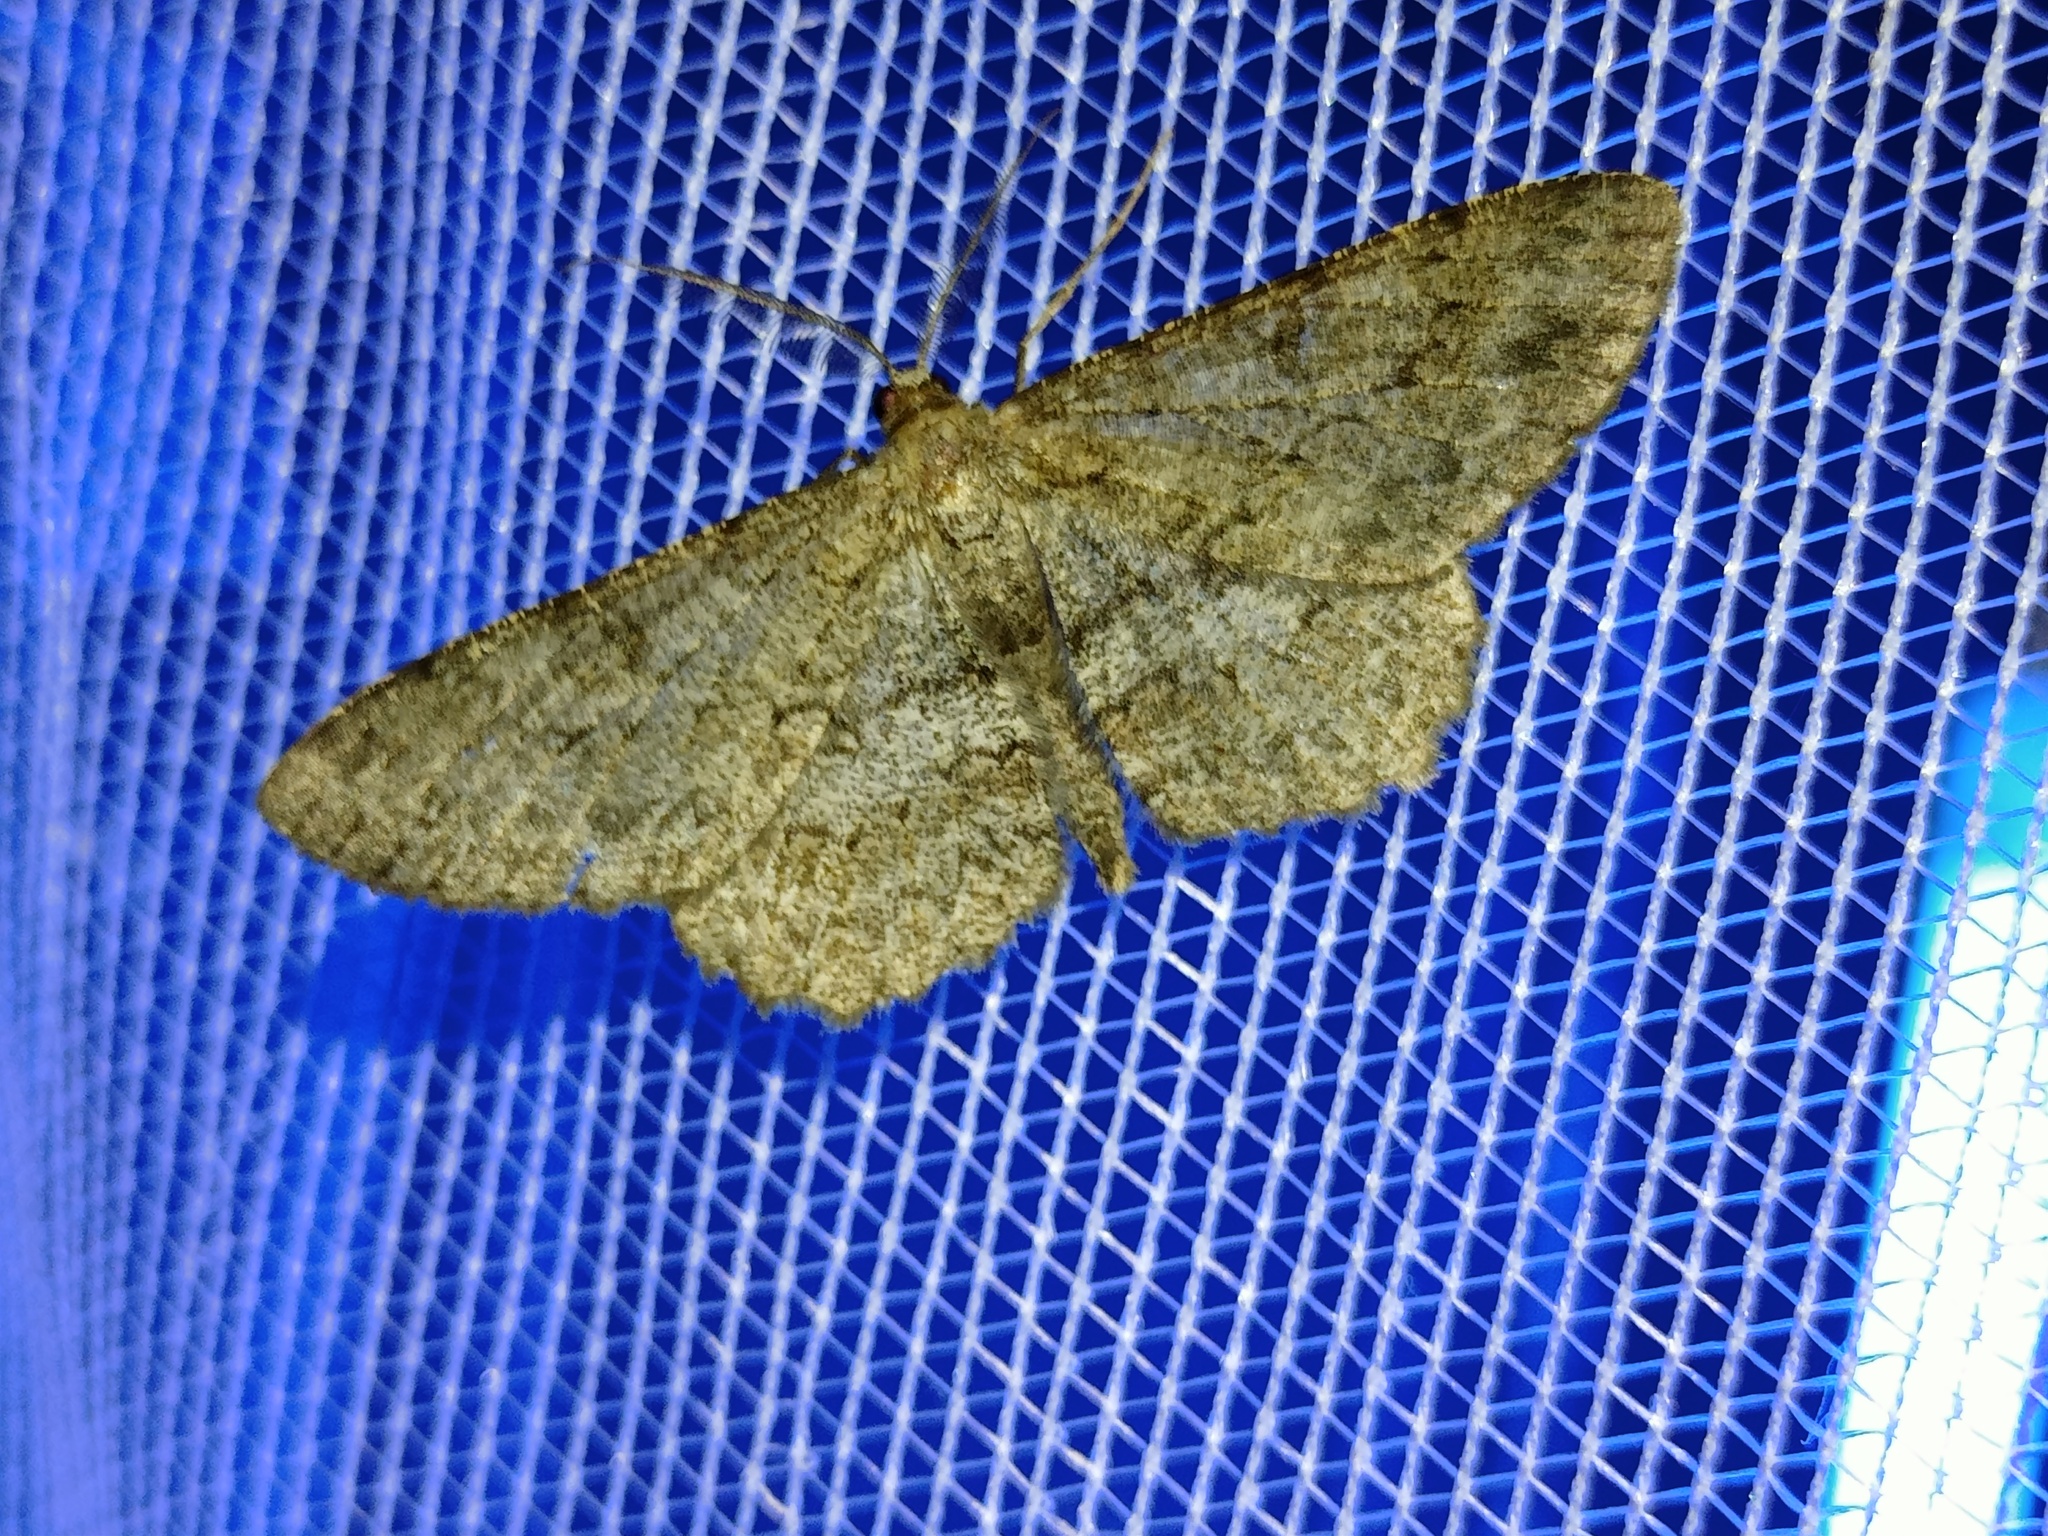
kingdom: Animalia
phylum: Arthropoda
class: Insecta
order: Lepidoptera
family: Geometridae
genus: Hypomecis
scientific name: Hypomecis punctinalis
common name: Pale oak beauty
